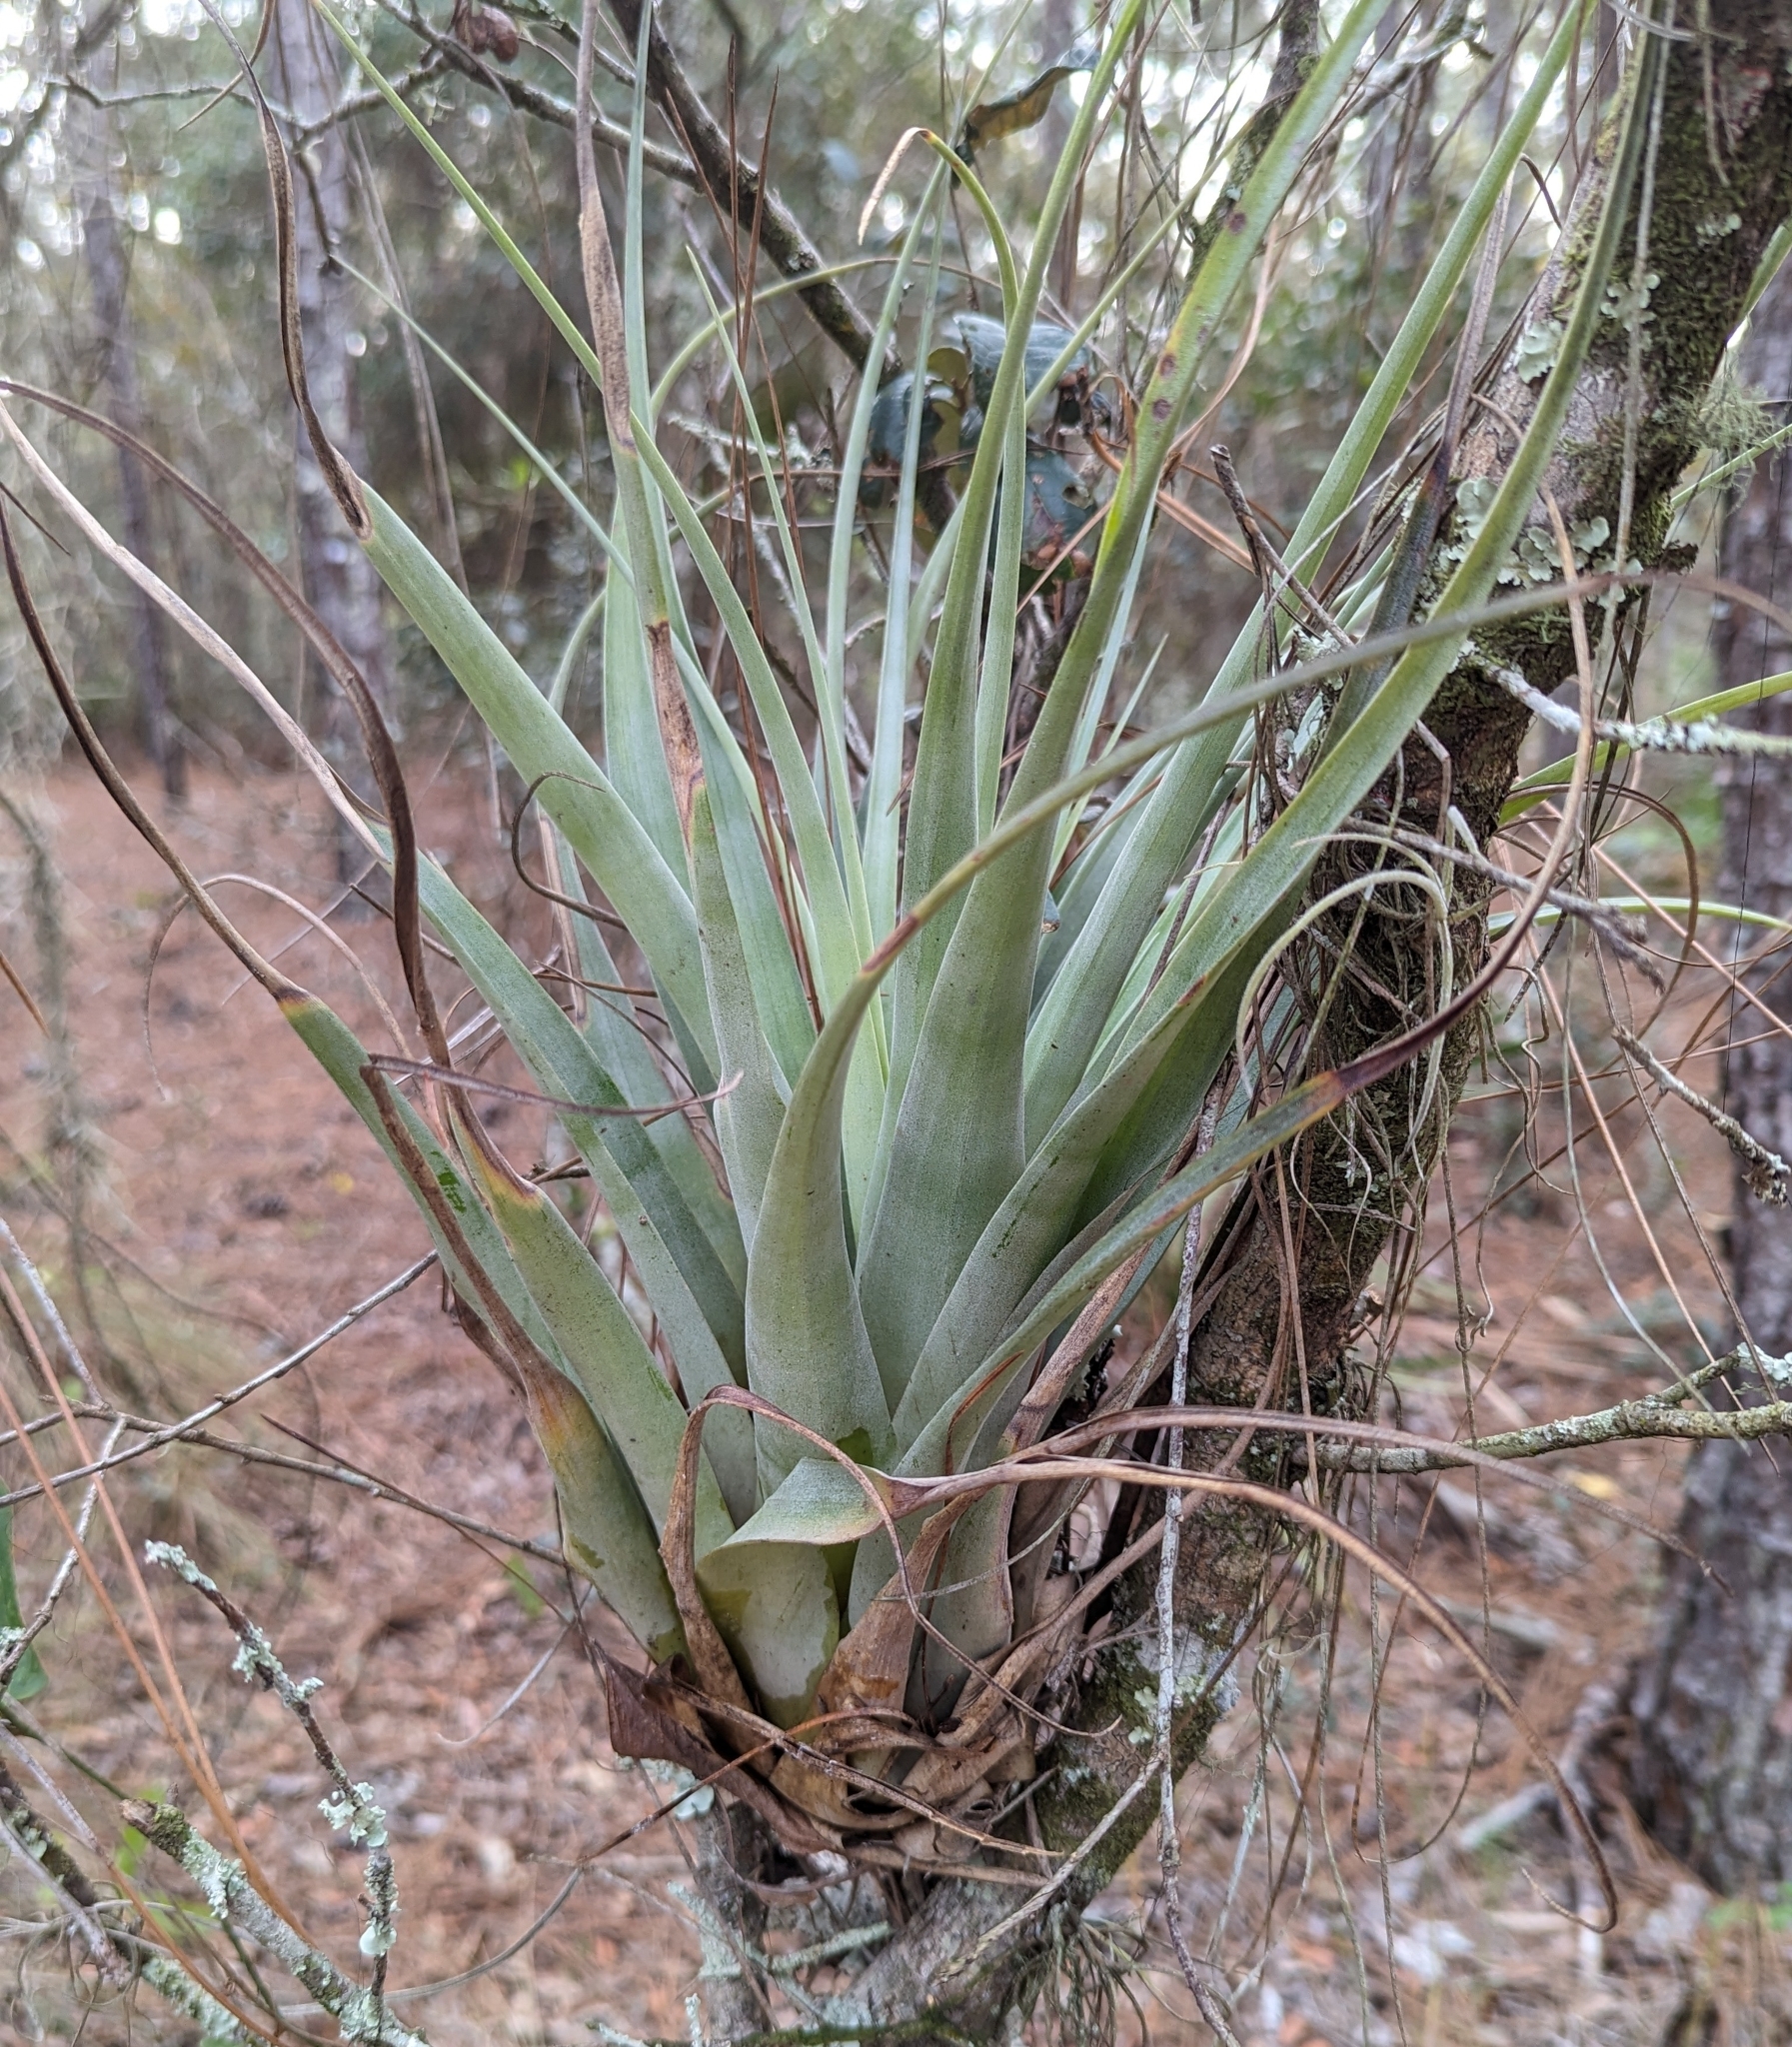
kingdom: Plantae
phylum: Tracheophyta
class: Liliopsida
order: Poales
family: Bromeliaceae
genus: Tillandsia
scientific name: Tillandsia utriculata
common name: Wild pine
